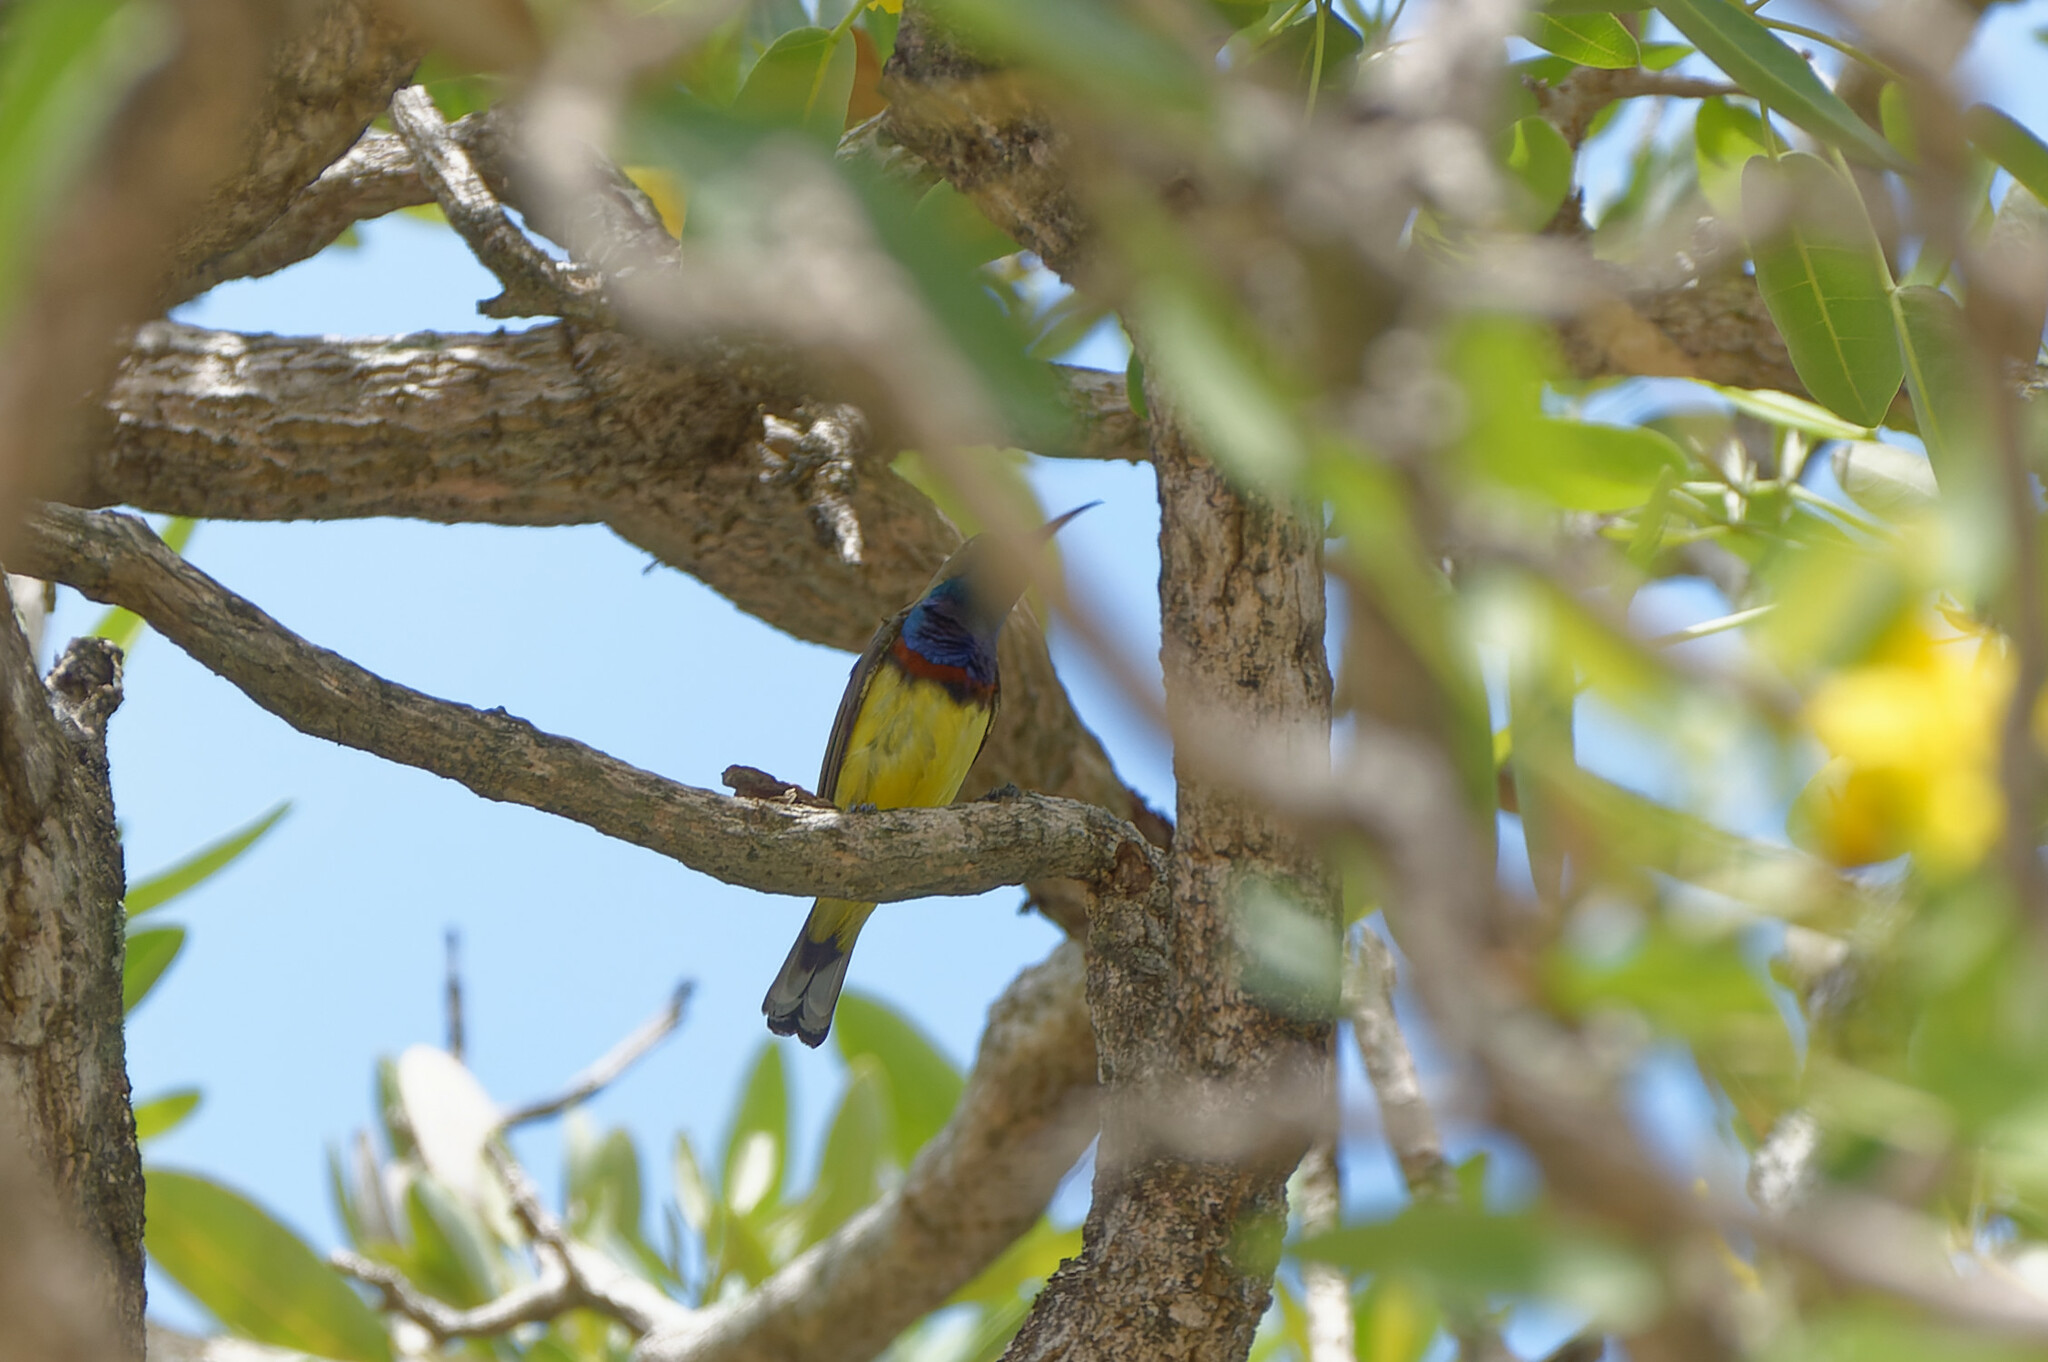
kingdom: Animalia
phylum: Chordata
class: Aves
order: Passeriformes
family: Nectariniidae
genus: Cinnyris
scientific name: Cinnyris
